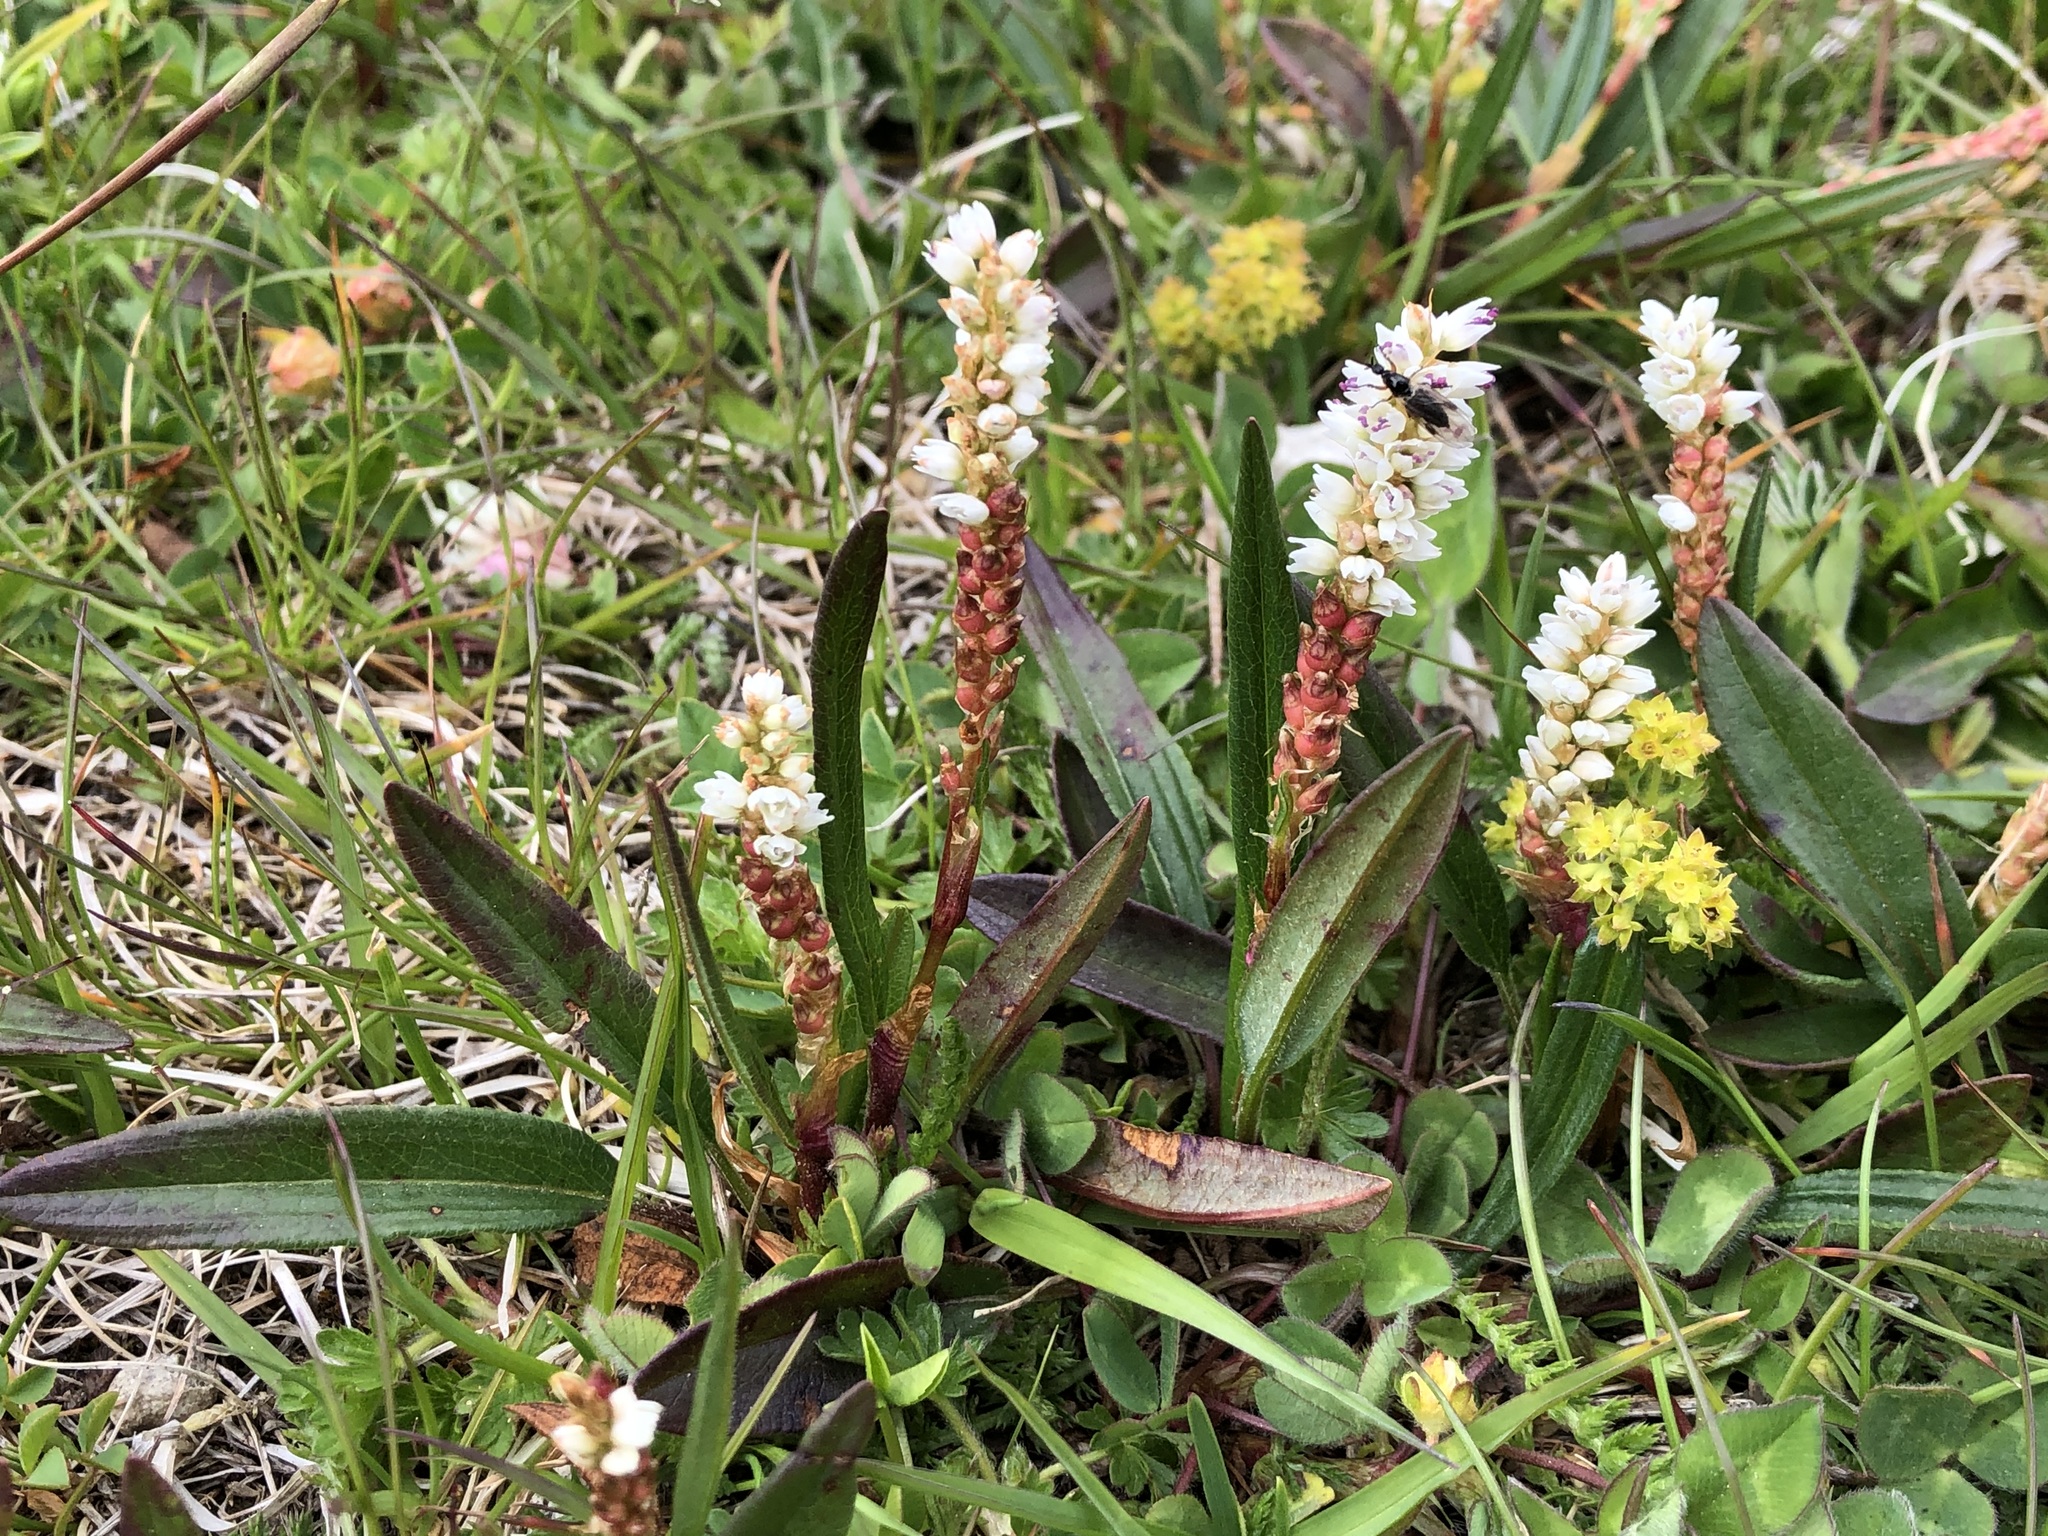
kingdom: Plantae
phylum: Tracheophyta
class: Magnoliopsida
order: Caryophyllales
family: Polygonaceae
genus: Bistorta
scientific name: Bistorta vivipara
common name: Alpine bistort
